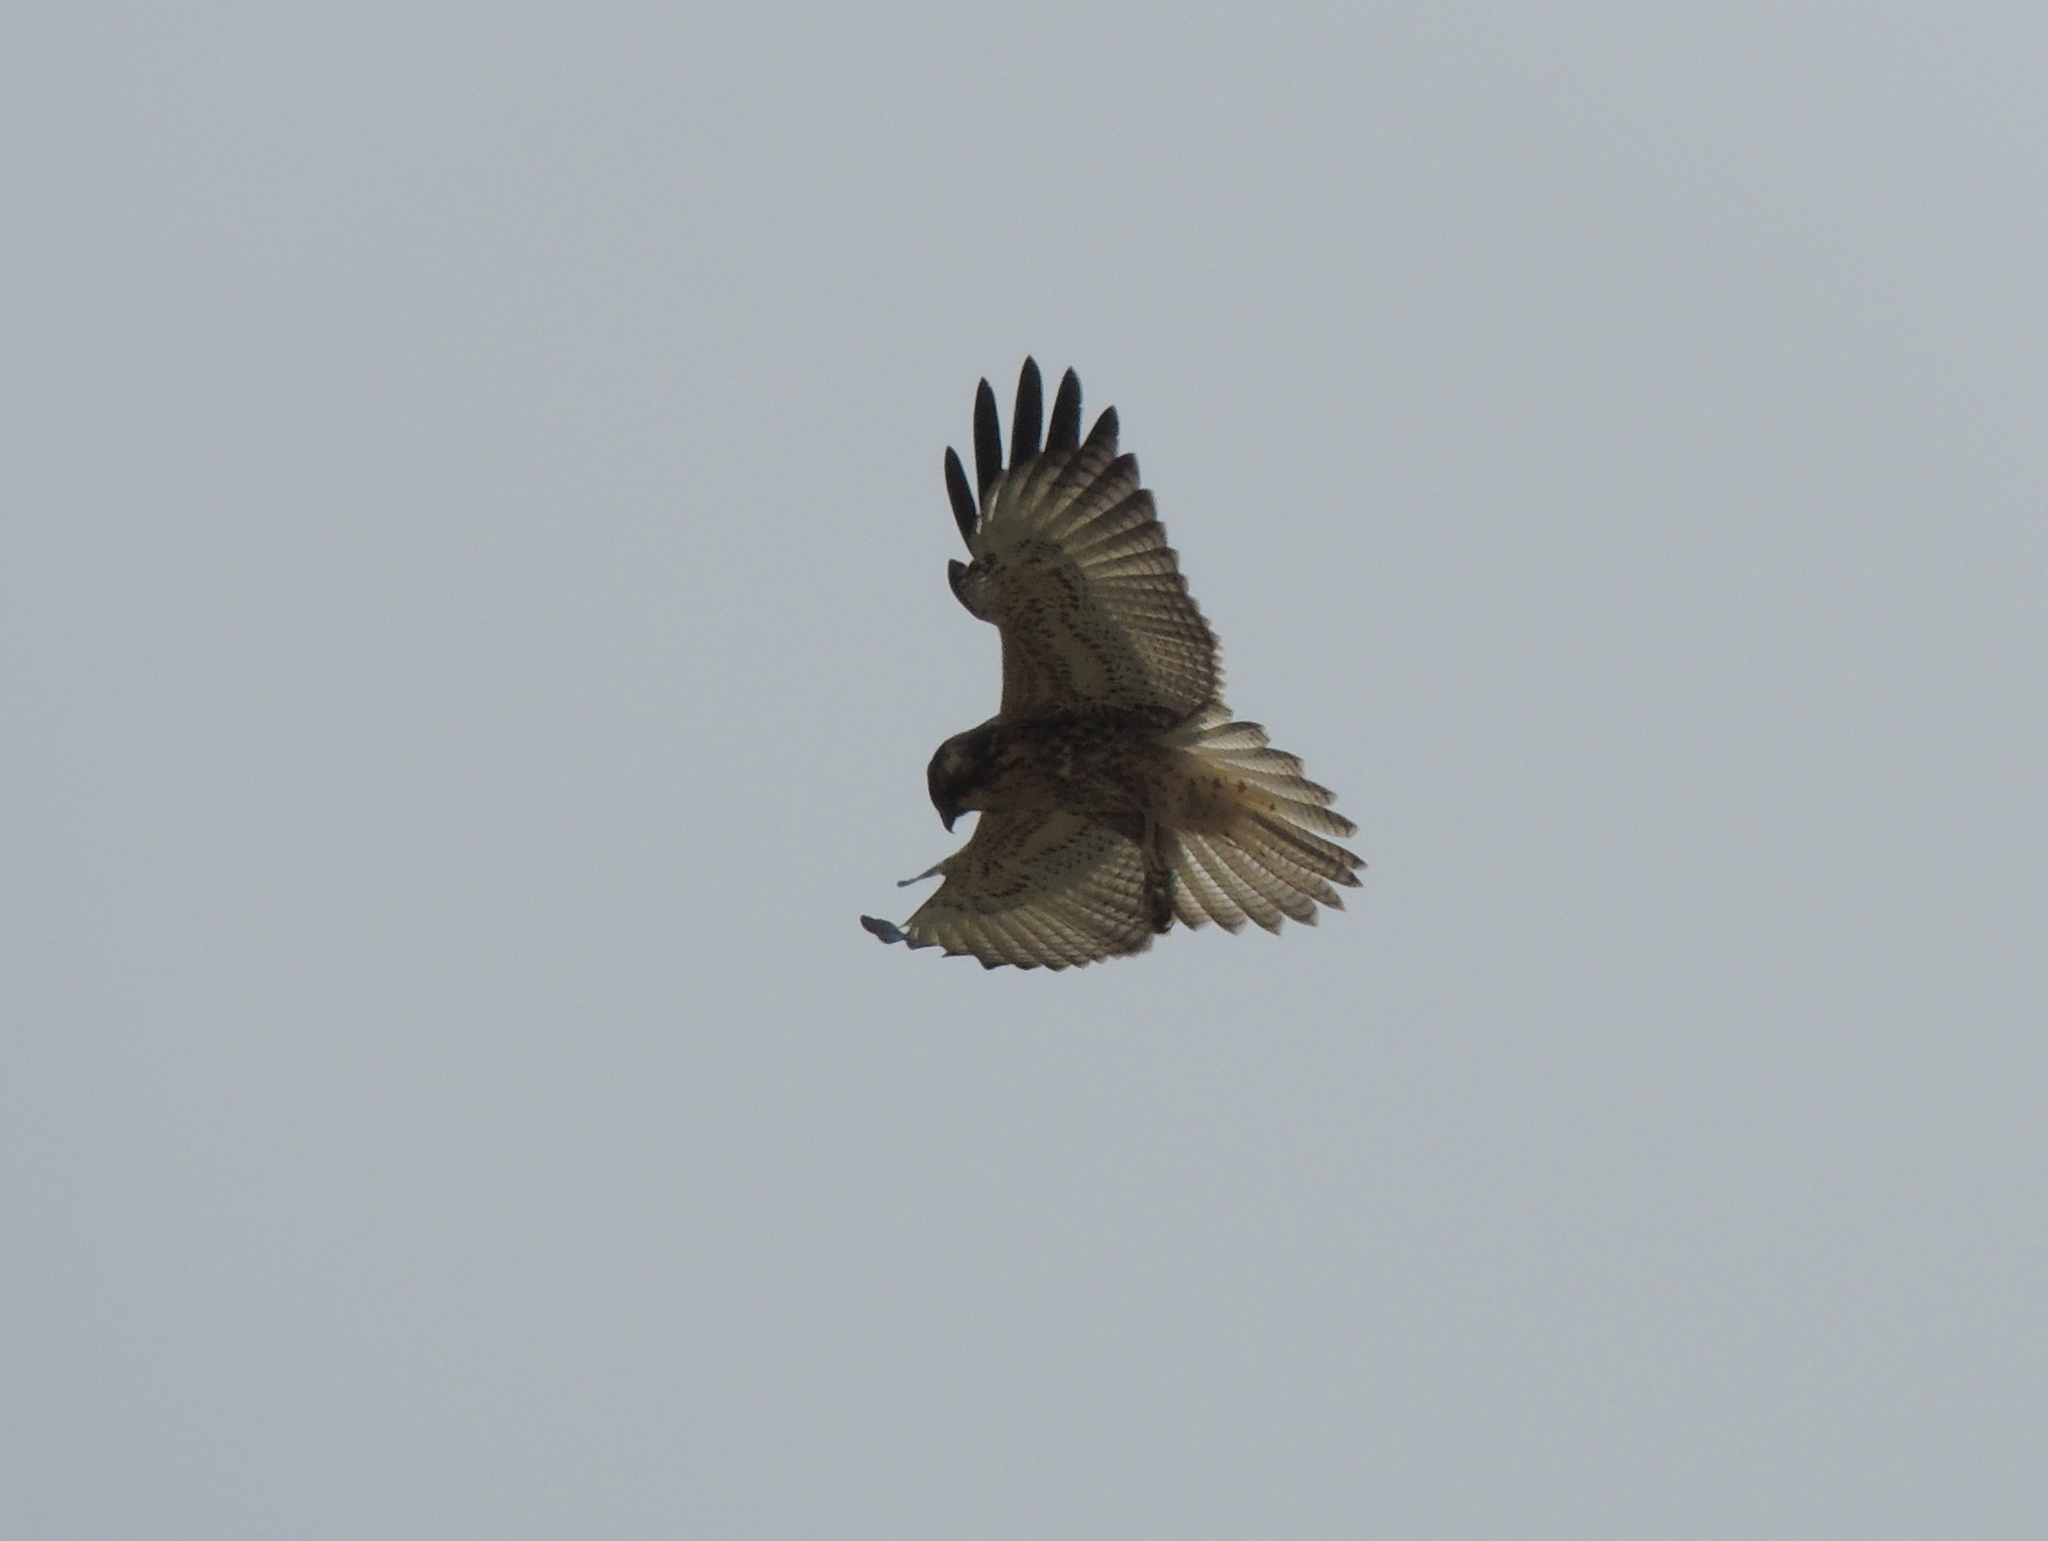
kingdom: Animalia
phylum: Chordata
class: Aves
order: Accipitriformes
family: Accipitridae
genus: Buteo
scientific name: Buteo polyosoma
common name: Variable hawk
